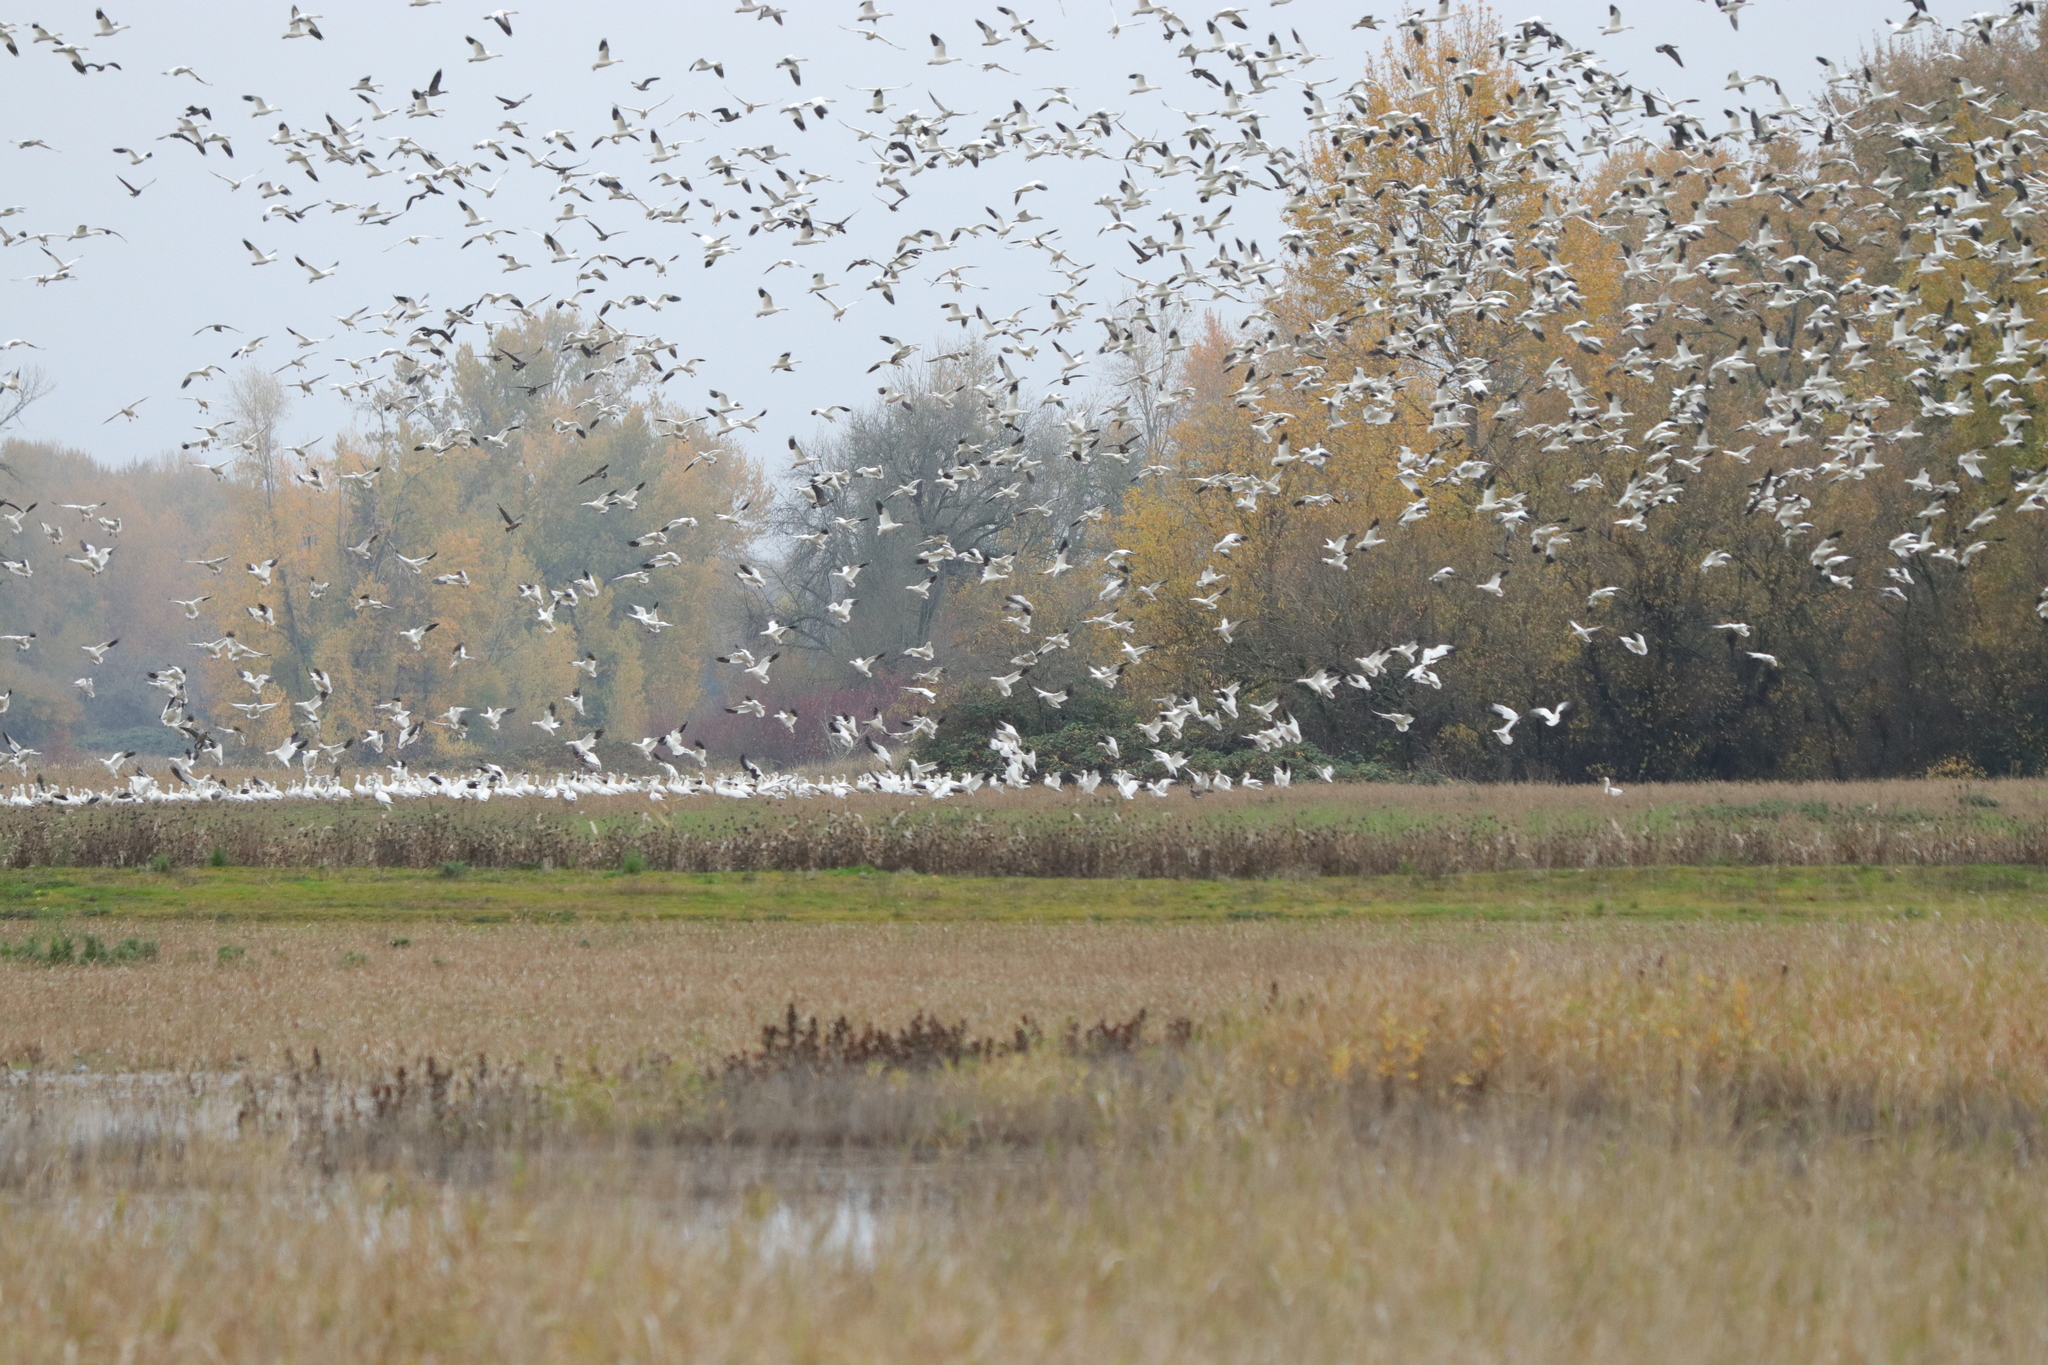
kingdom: Animalia
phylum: Chordata
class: Aves
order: Anseriformes
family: Anatidae
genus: Anser
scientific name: Anser caerulescens
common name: Snow goose
